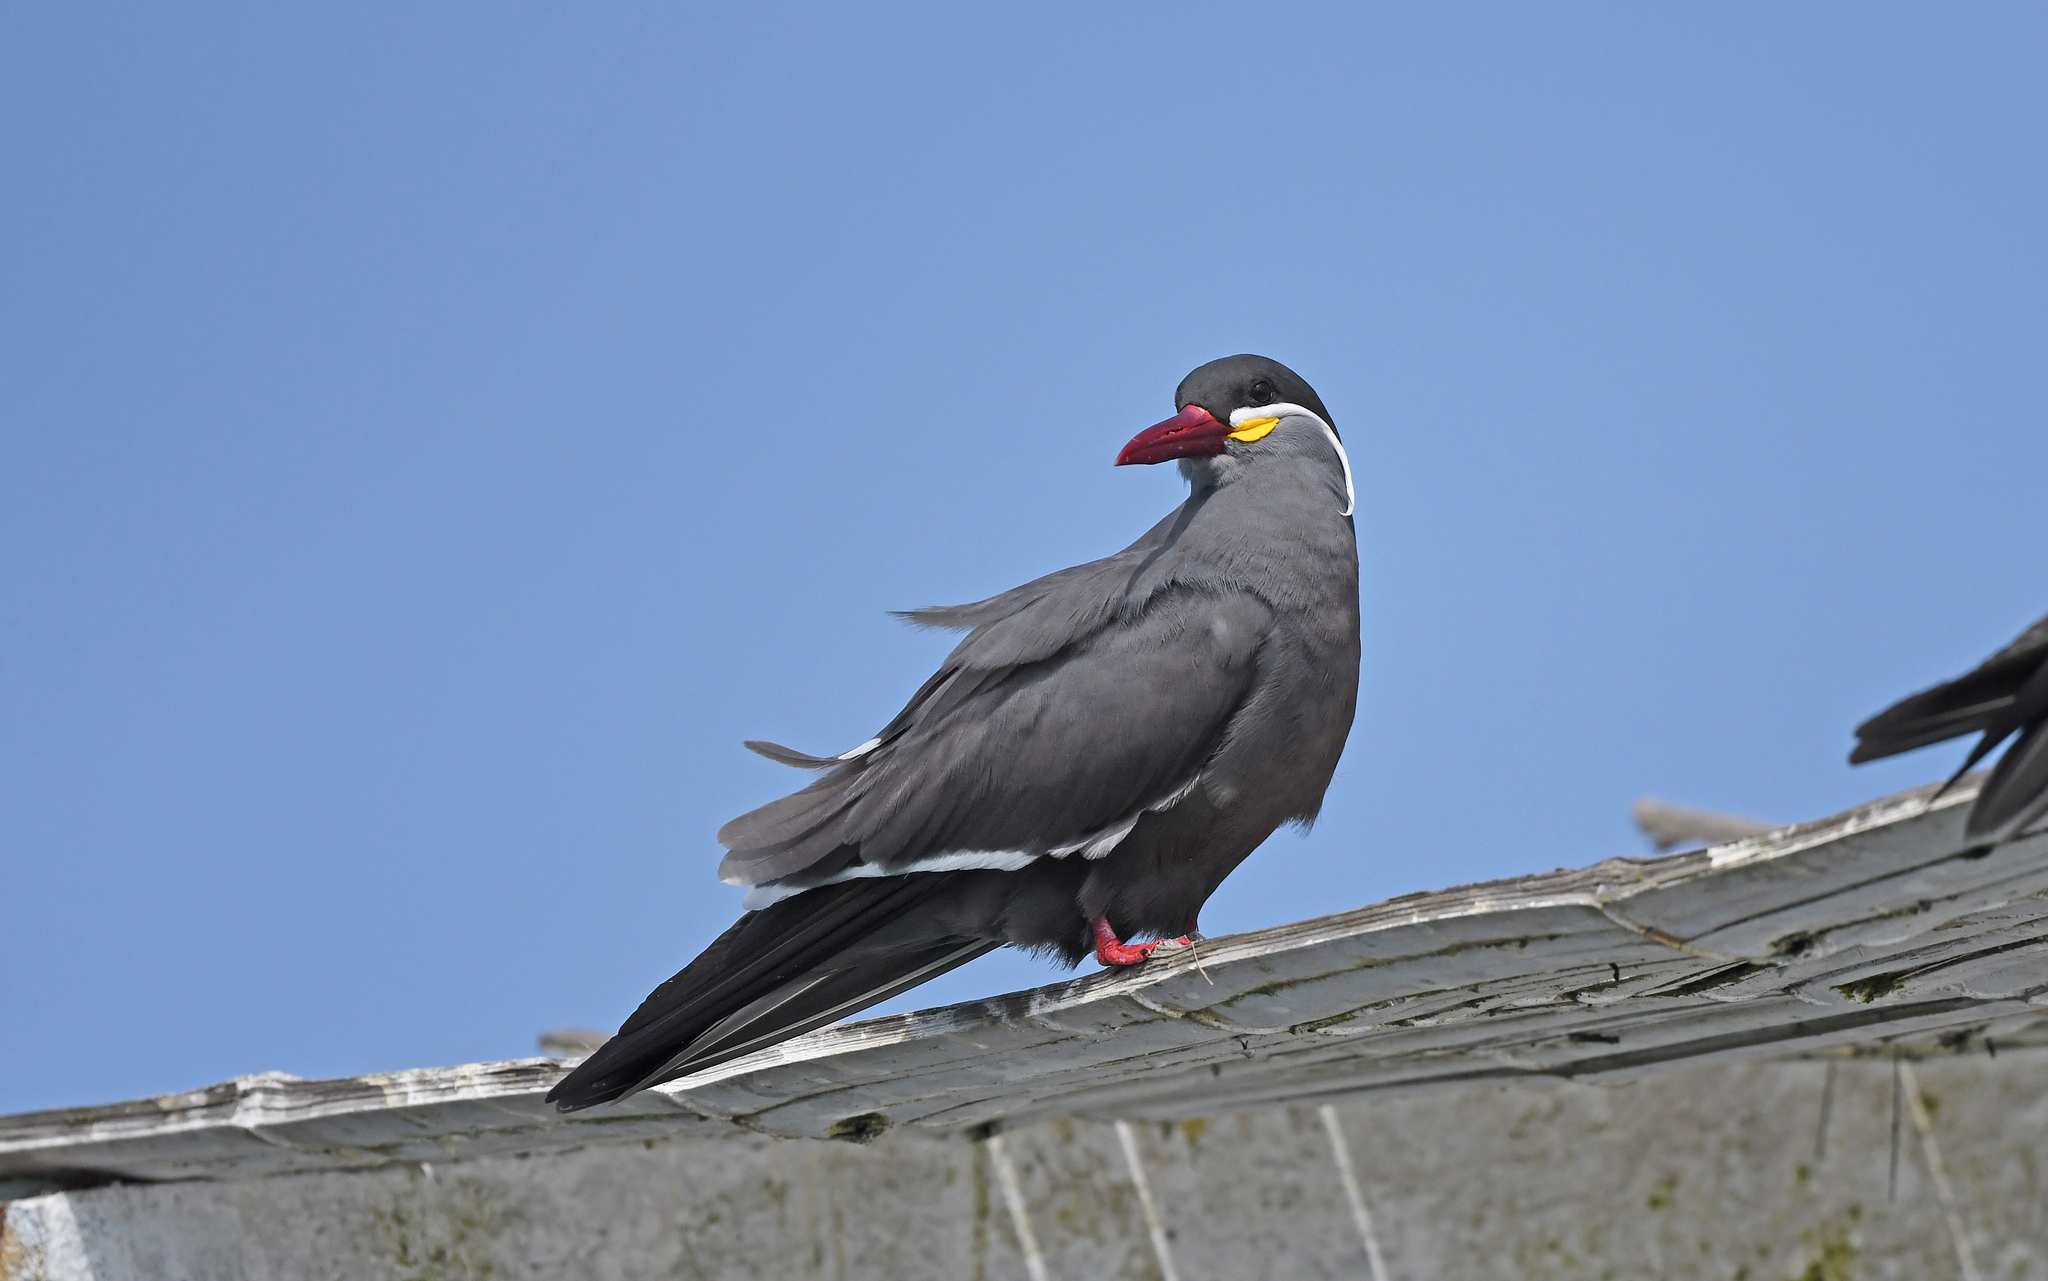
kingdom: Animalia
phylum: Chordata
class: Aves
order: Charadriiformes
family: Laridae
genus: Larosterna
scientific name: Larosterna inca
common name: Inca tern
